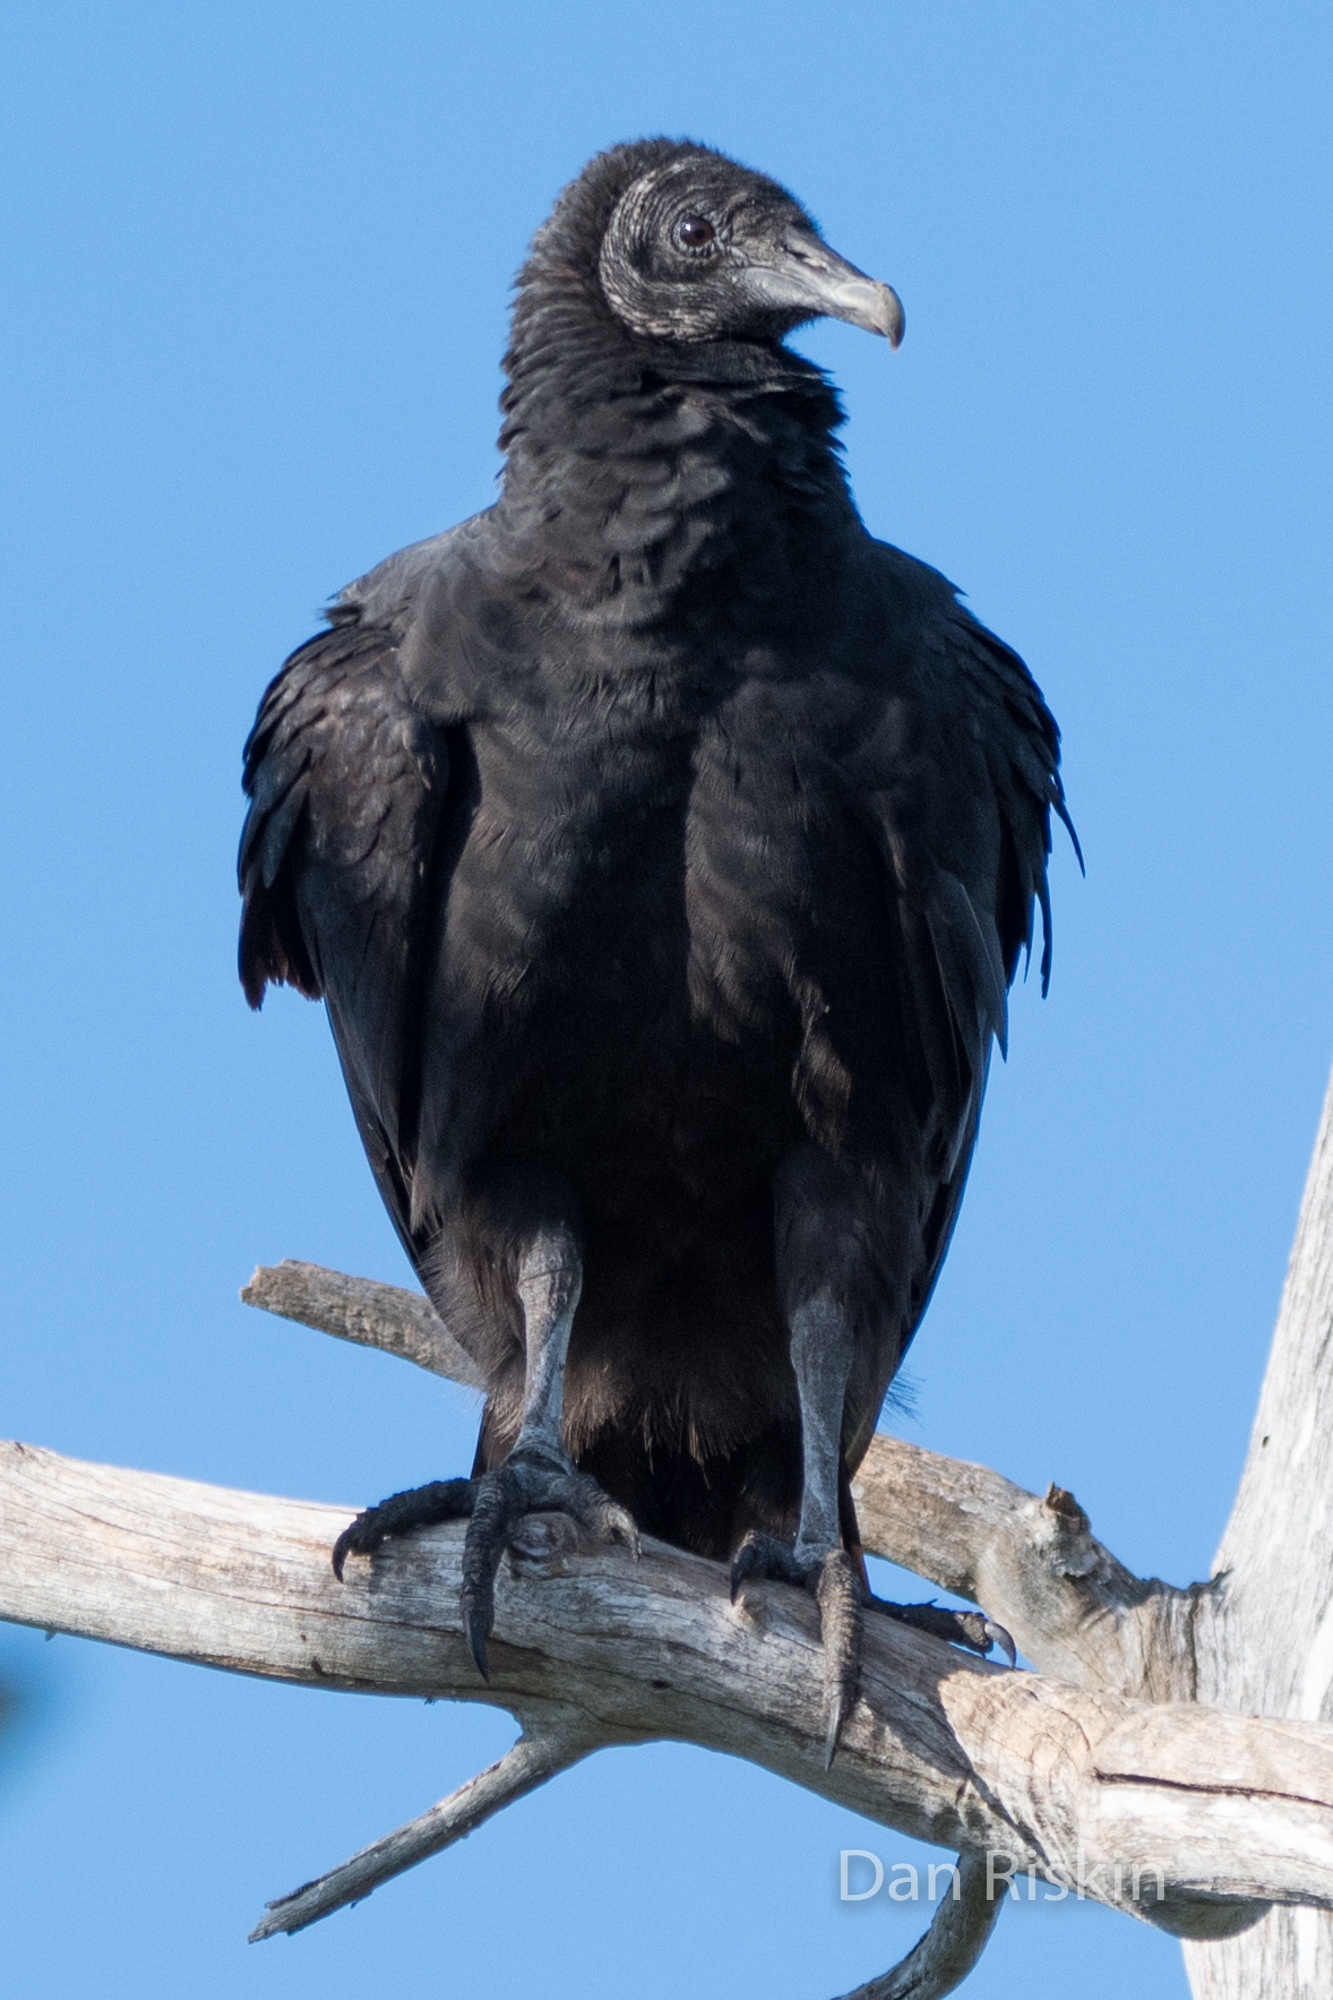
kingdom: Animalia
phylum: Chordata
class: Aves
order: Accipitriformes
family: Cathartidae
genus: Coragyps
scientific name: Coragyps atratus
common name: Black vulture
